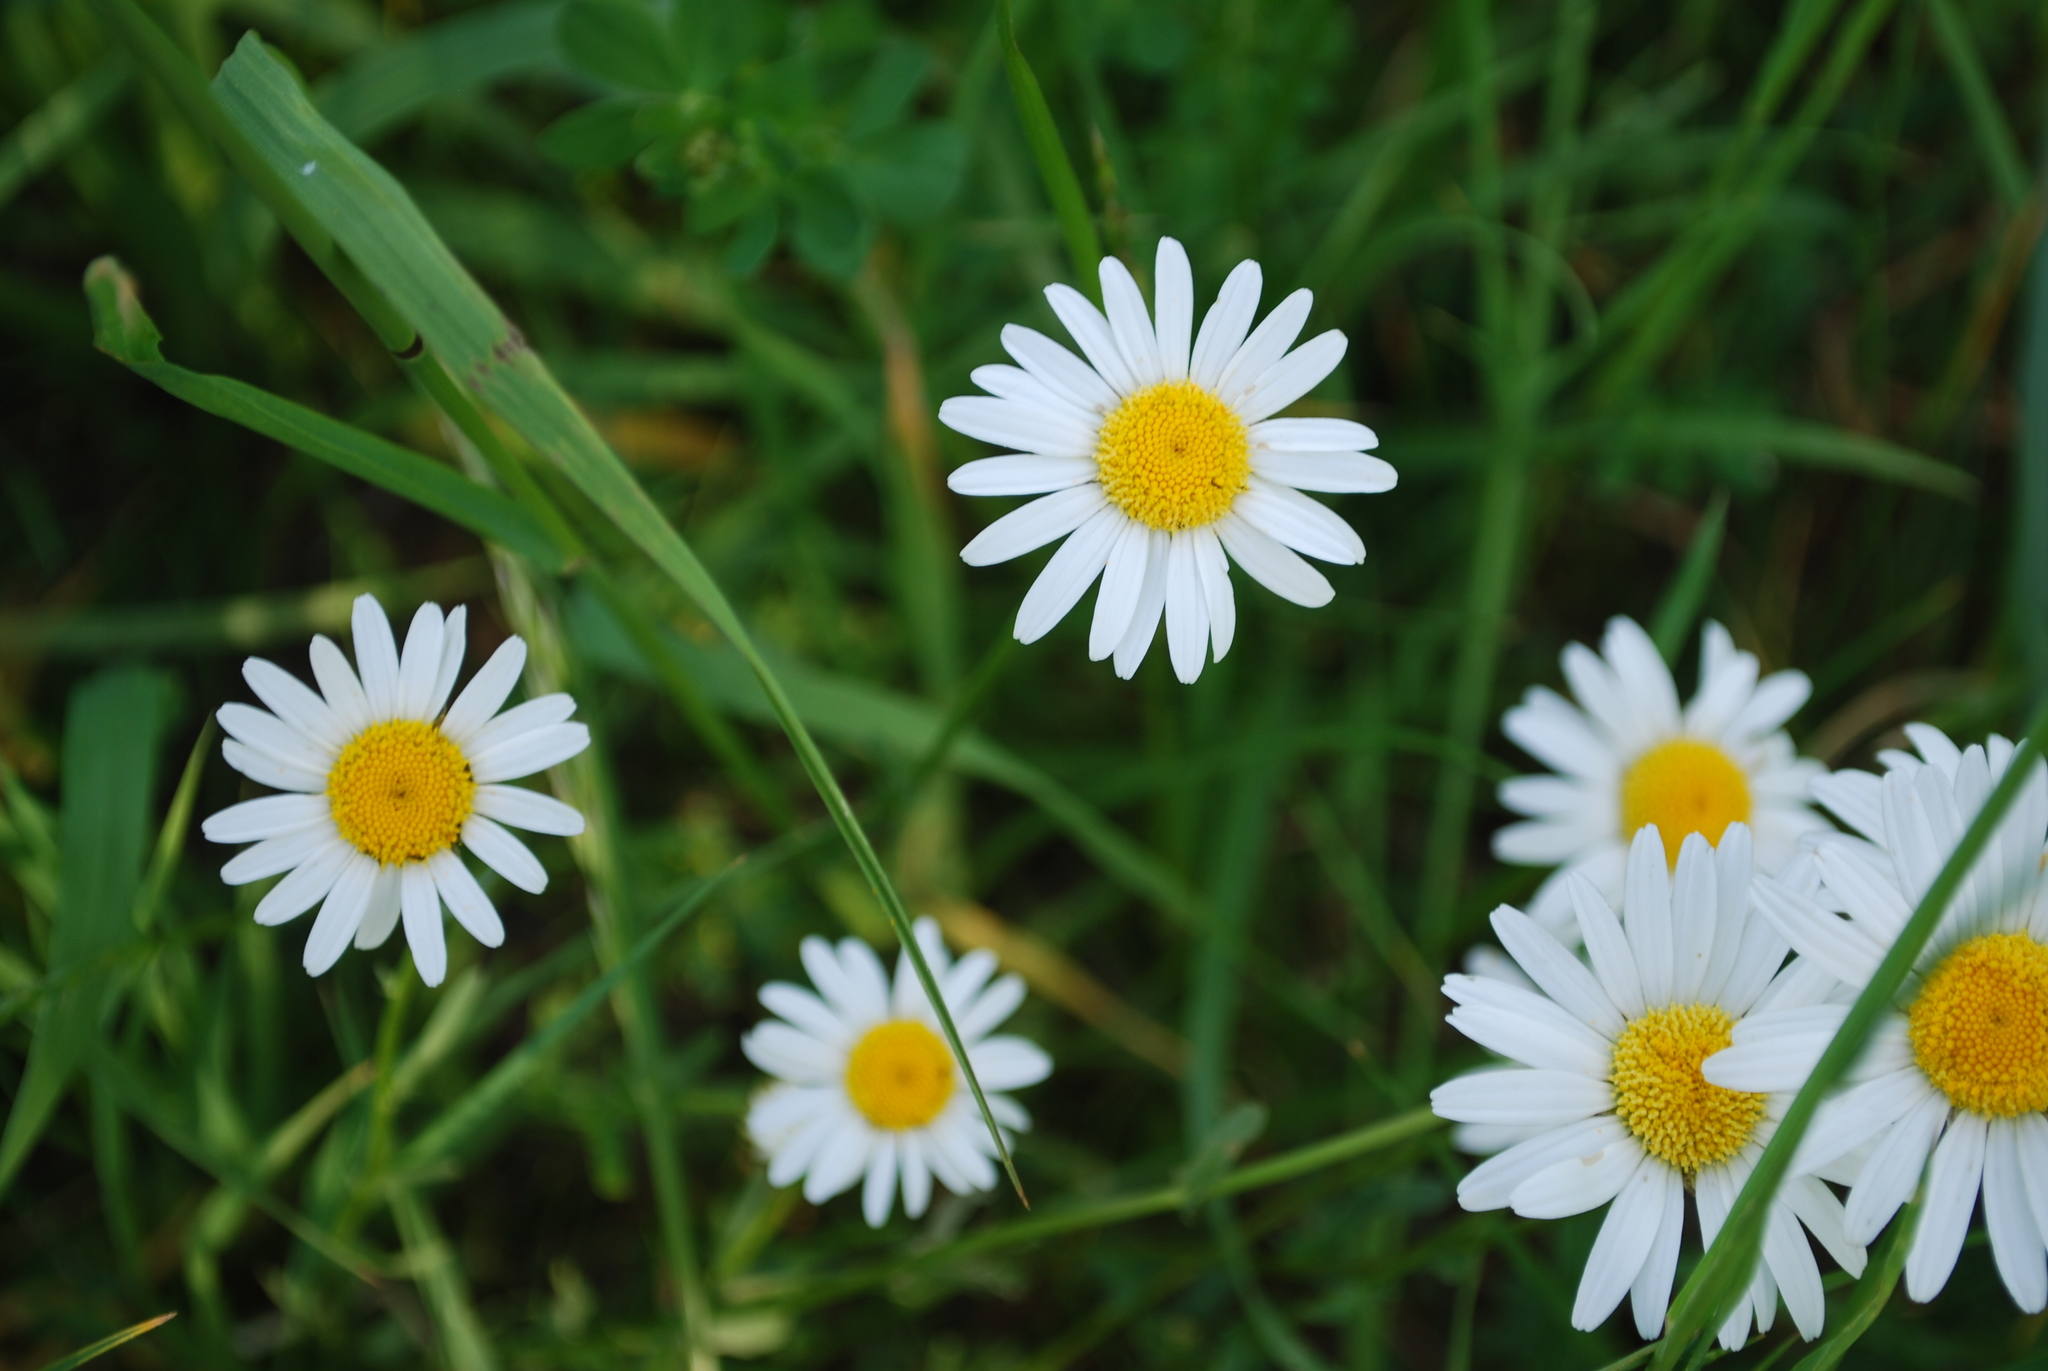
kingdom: Plantae
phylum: Tracheophyta
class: Magnoliopsida
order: Asterales
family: Asteraceae
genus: Leucanthemum
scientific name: Leucanthemum vulgare
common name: Oxeye daisy
